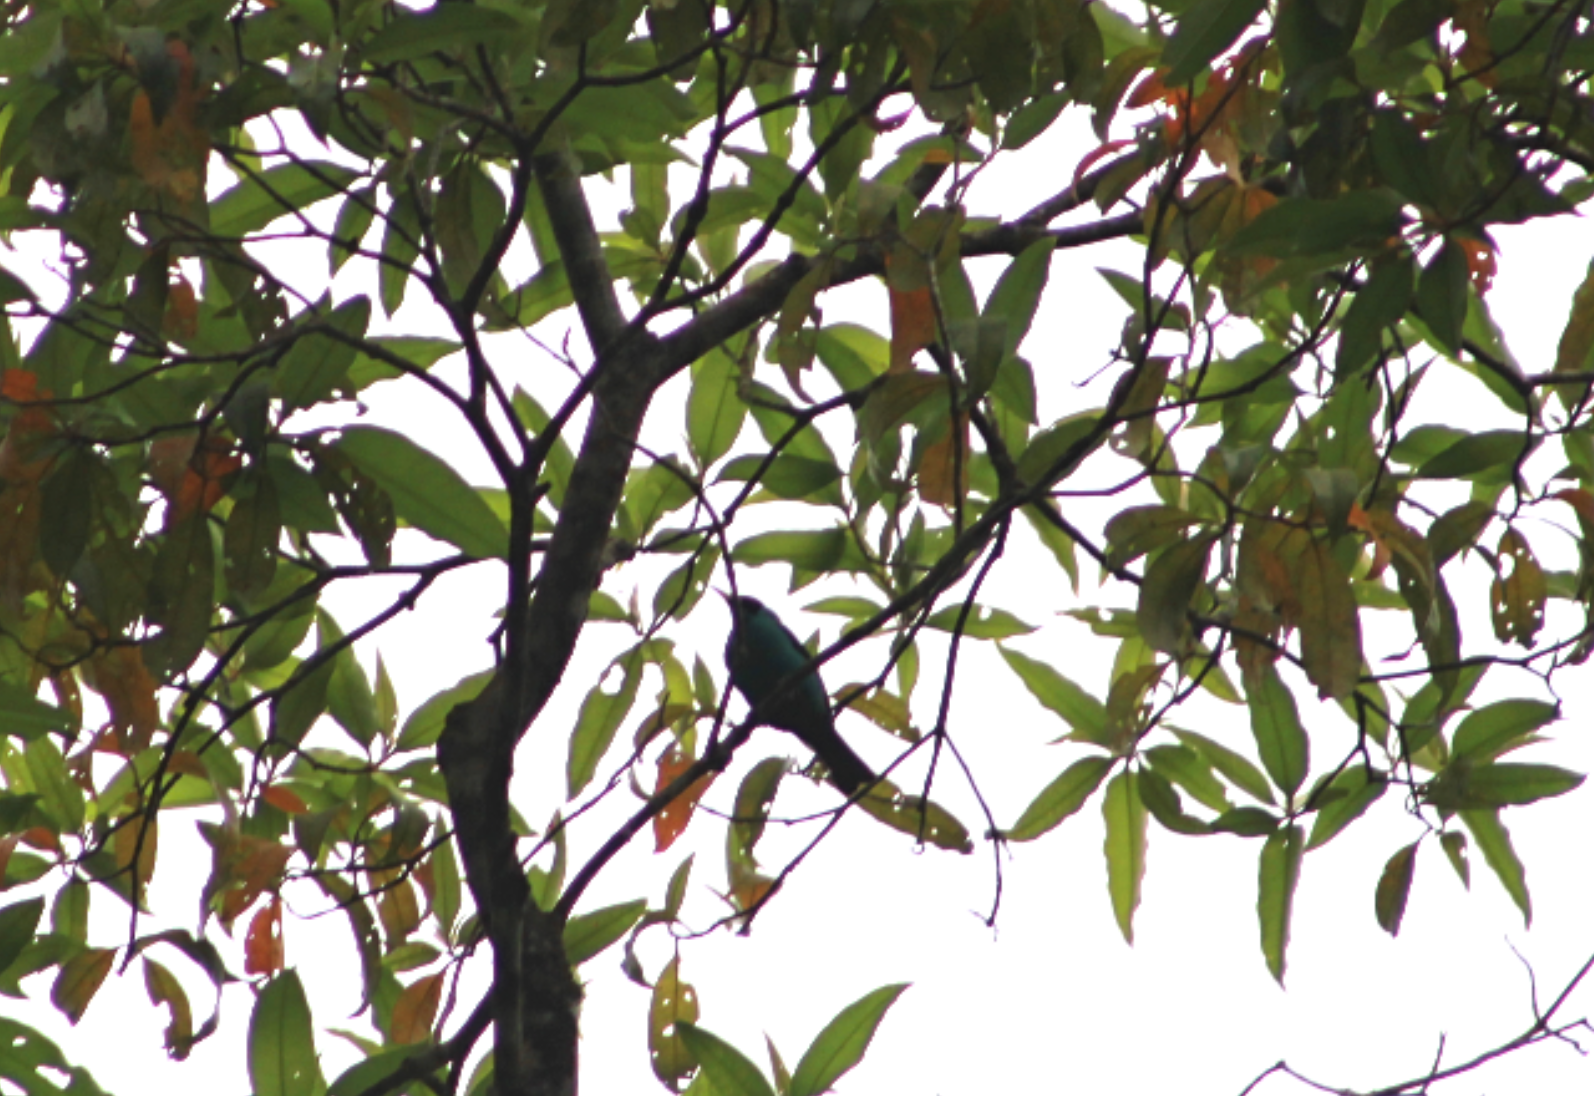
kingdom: Animalia
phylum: Chordata
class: Aves
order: Passeriformes
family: Thraupidae
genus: Chlorophanes
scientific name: Chlorophanes spiza
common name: Green honeycreeper
